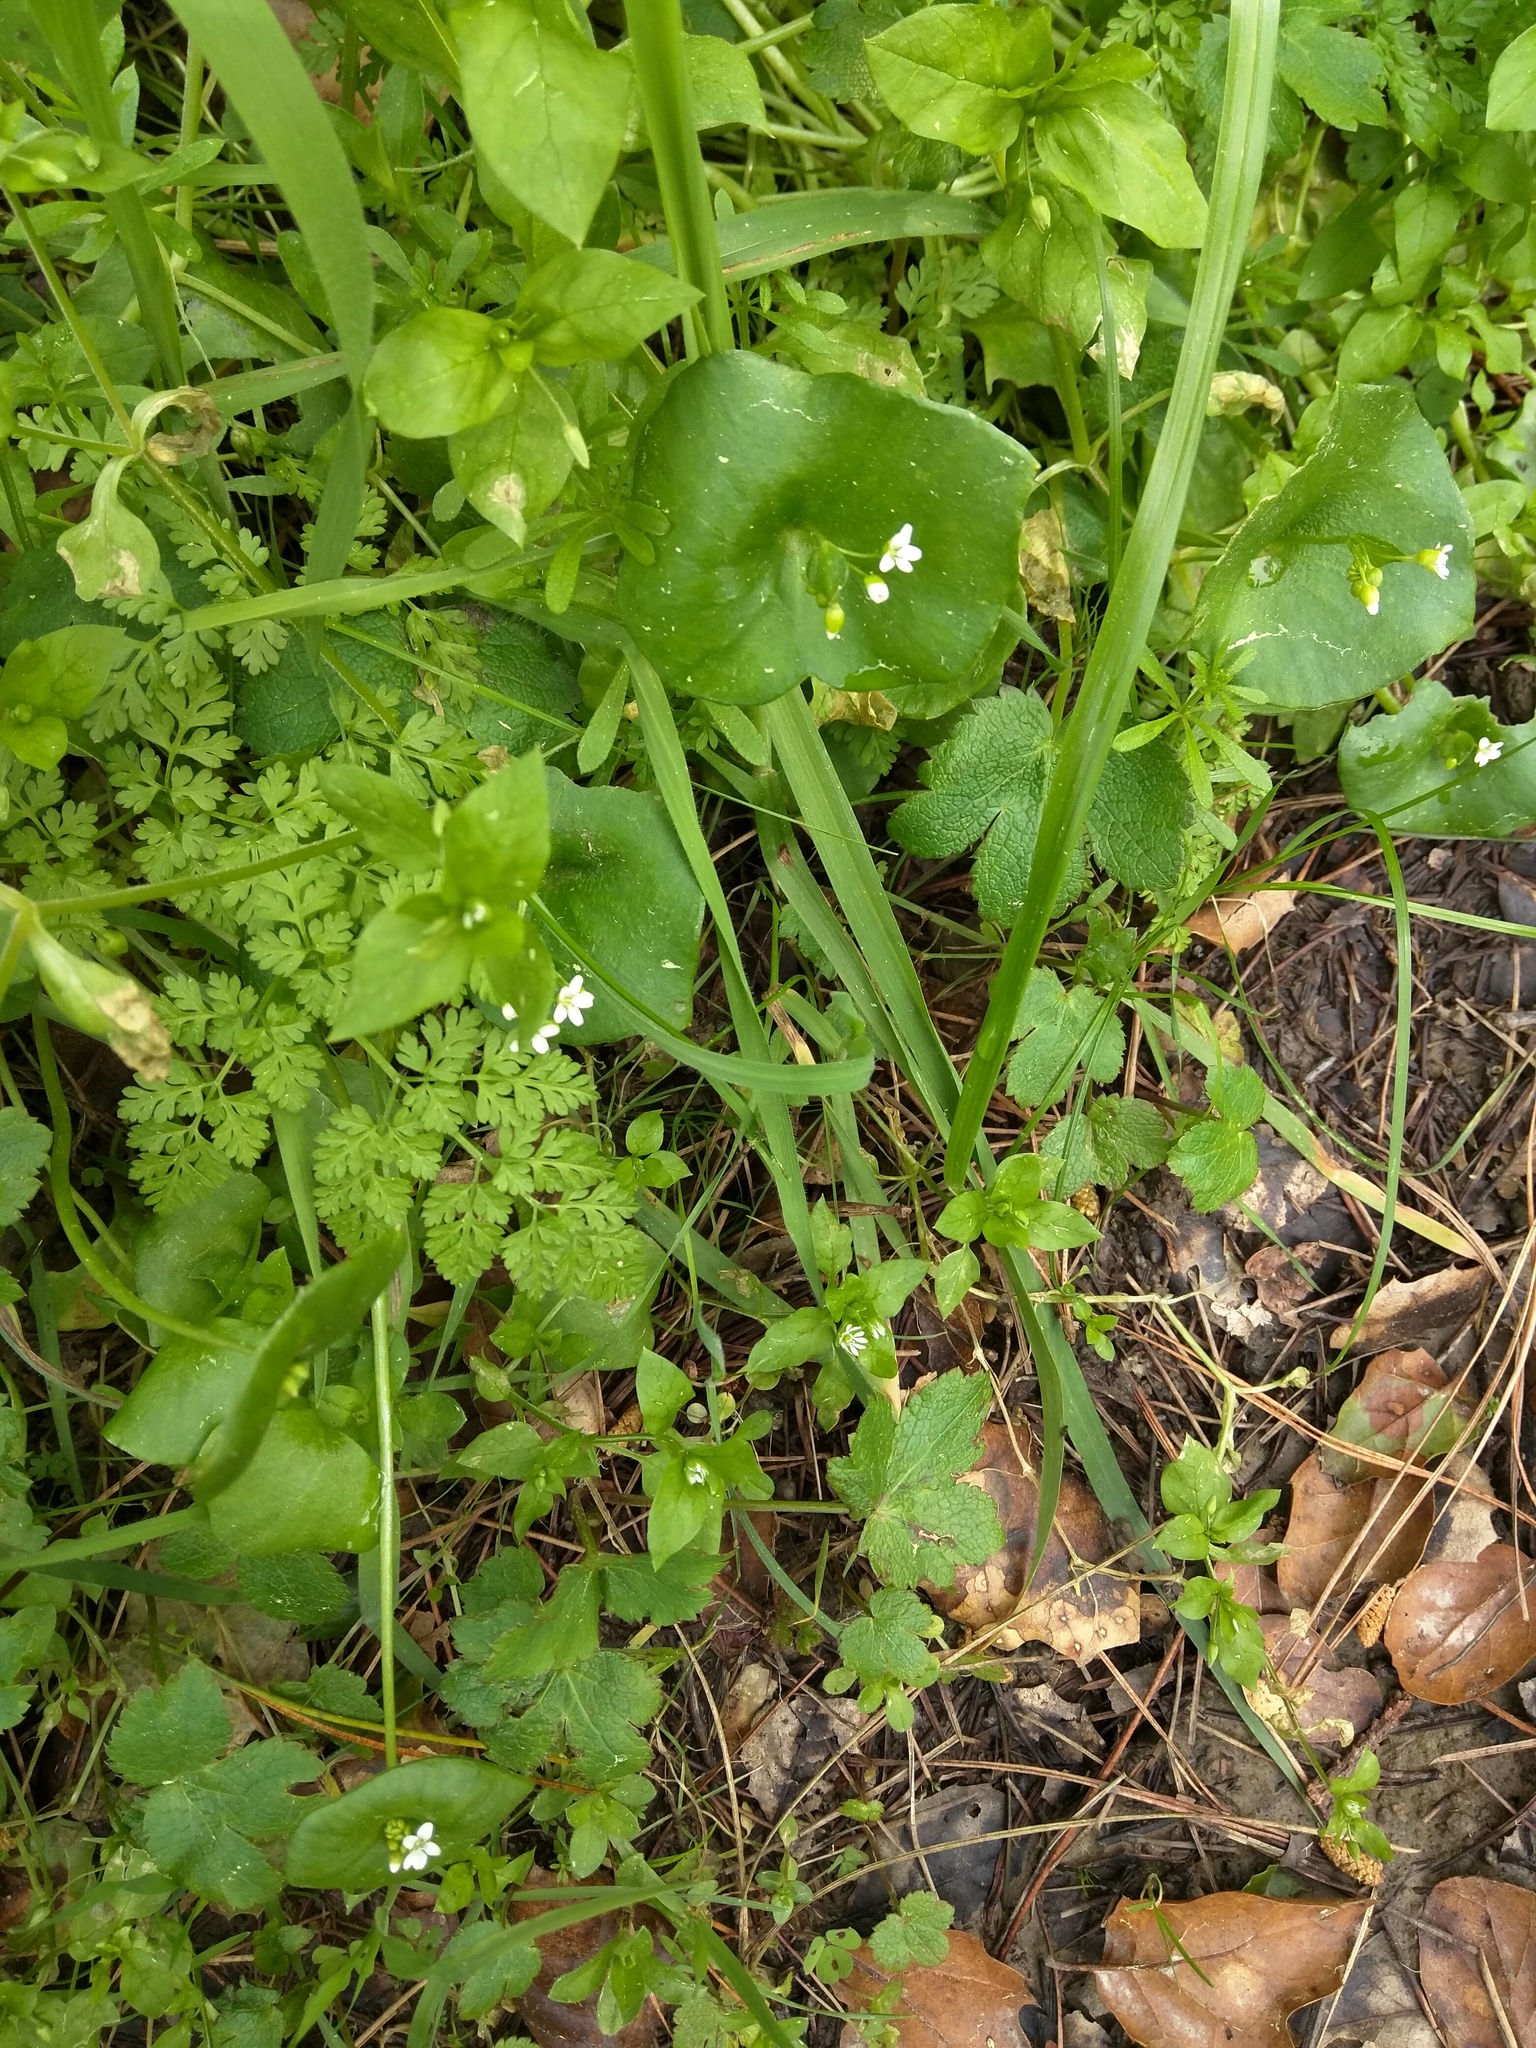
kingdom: Plantae
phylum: Tracheophyta
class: Magnoliopsida
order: Caryophyllales
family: Montiaceae
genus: Claytonia
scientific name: Claytonia perfoliata
